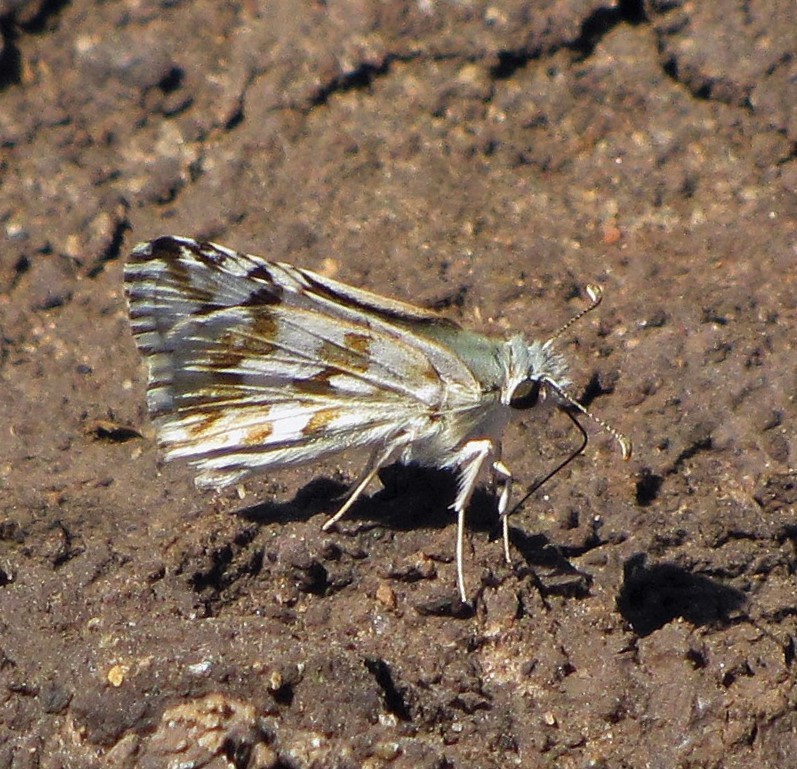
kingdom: Animalia
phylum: Arthropoda
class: Insecta
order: Lepidoptera
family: Hesperiidae
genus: Heliopetes
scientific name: Heliopetes americanus
